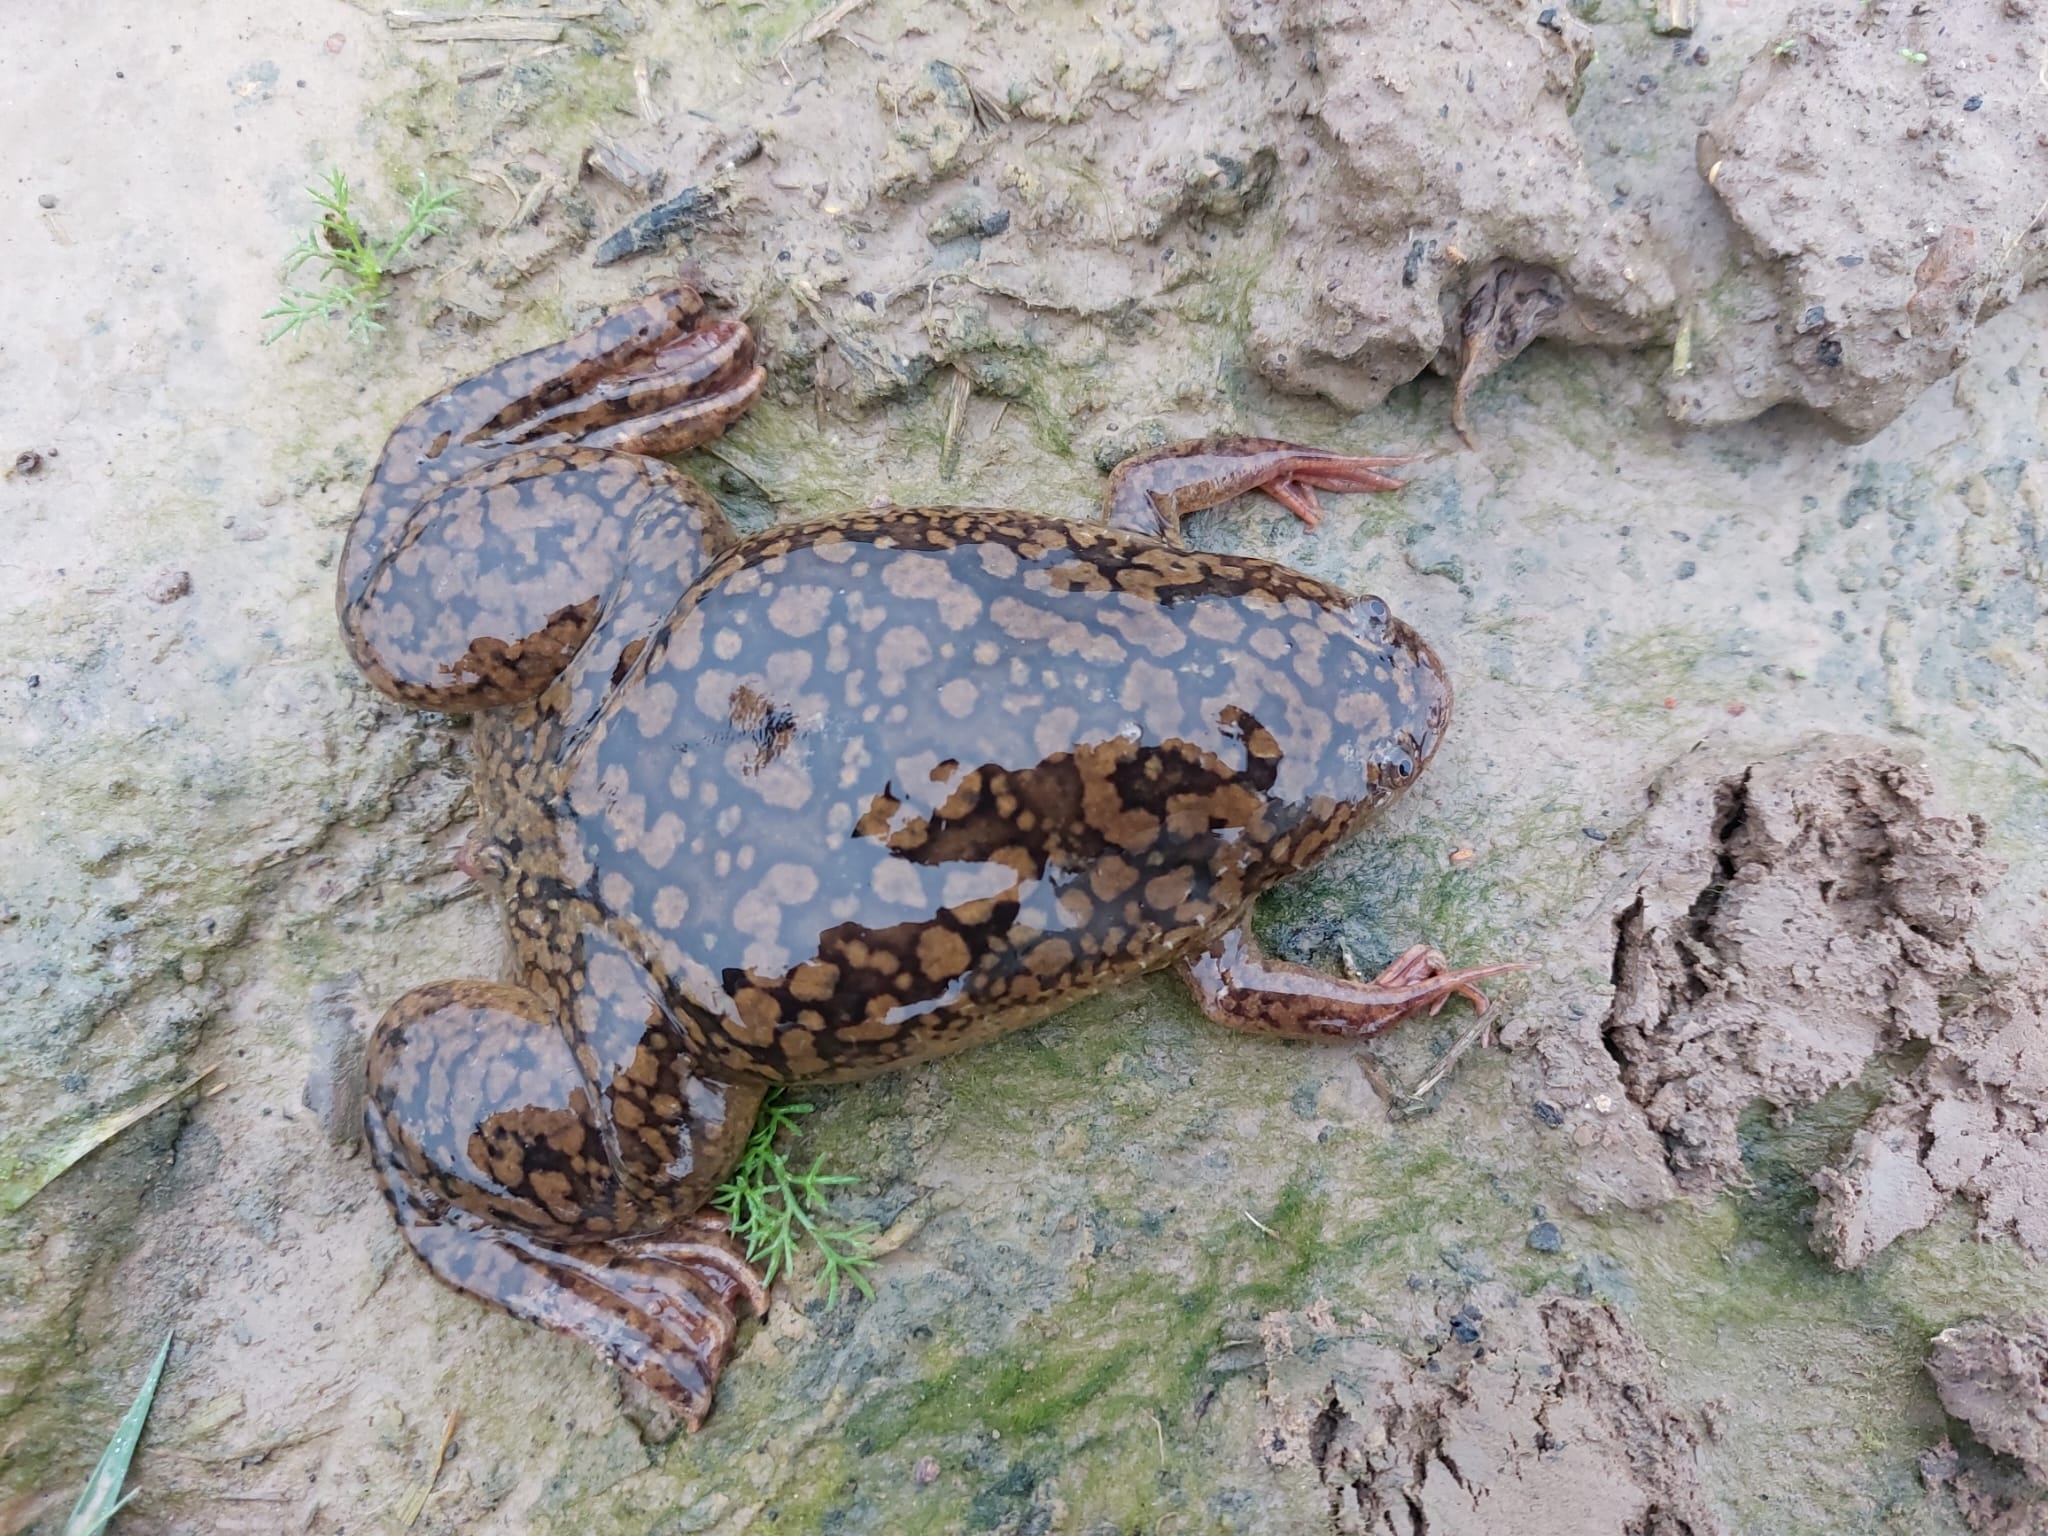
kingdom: Animalia
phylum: Chordata
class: Amphibia
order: Anura
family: Pipidae
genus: Xenopus
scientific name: Xenopus laevis
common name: African clawed frog
